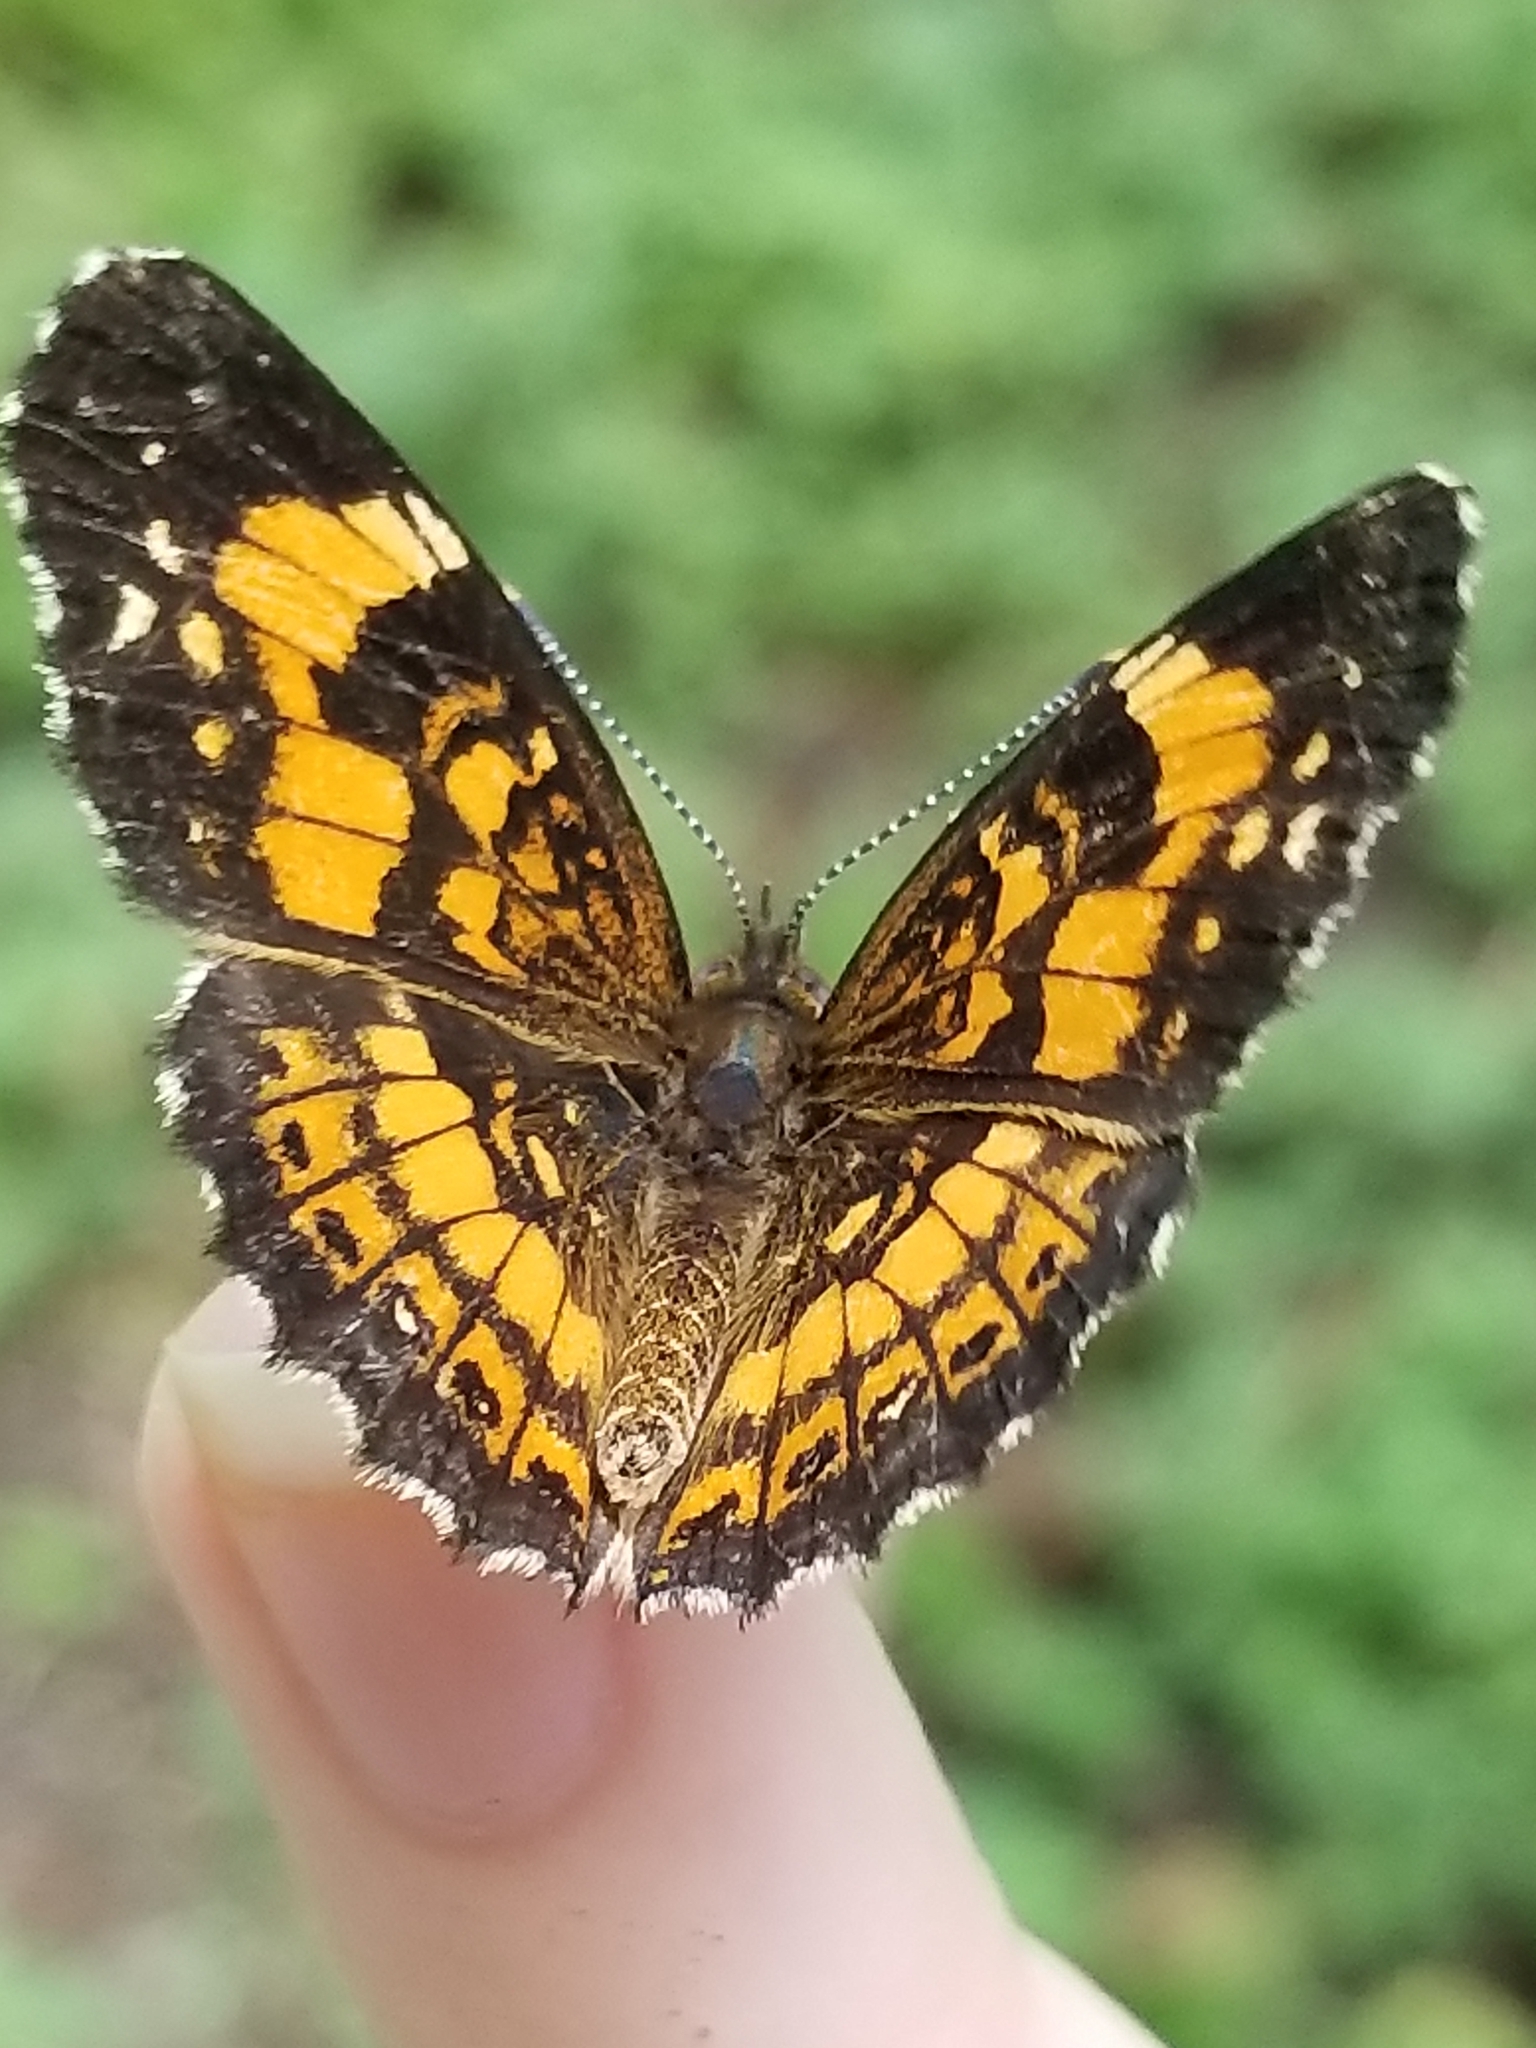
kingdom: Animalia
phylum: Arthropoda
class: Insecta
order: Lepidoptera
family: Nymphalidae
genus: Chlosyne
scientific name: Chlosyne nycteis
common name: Silvery checkerspot
